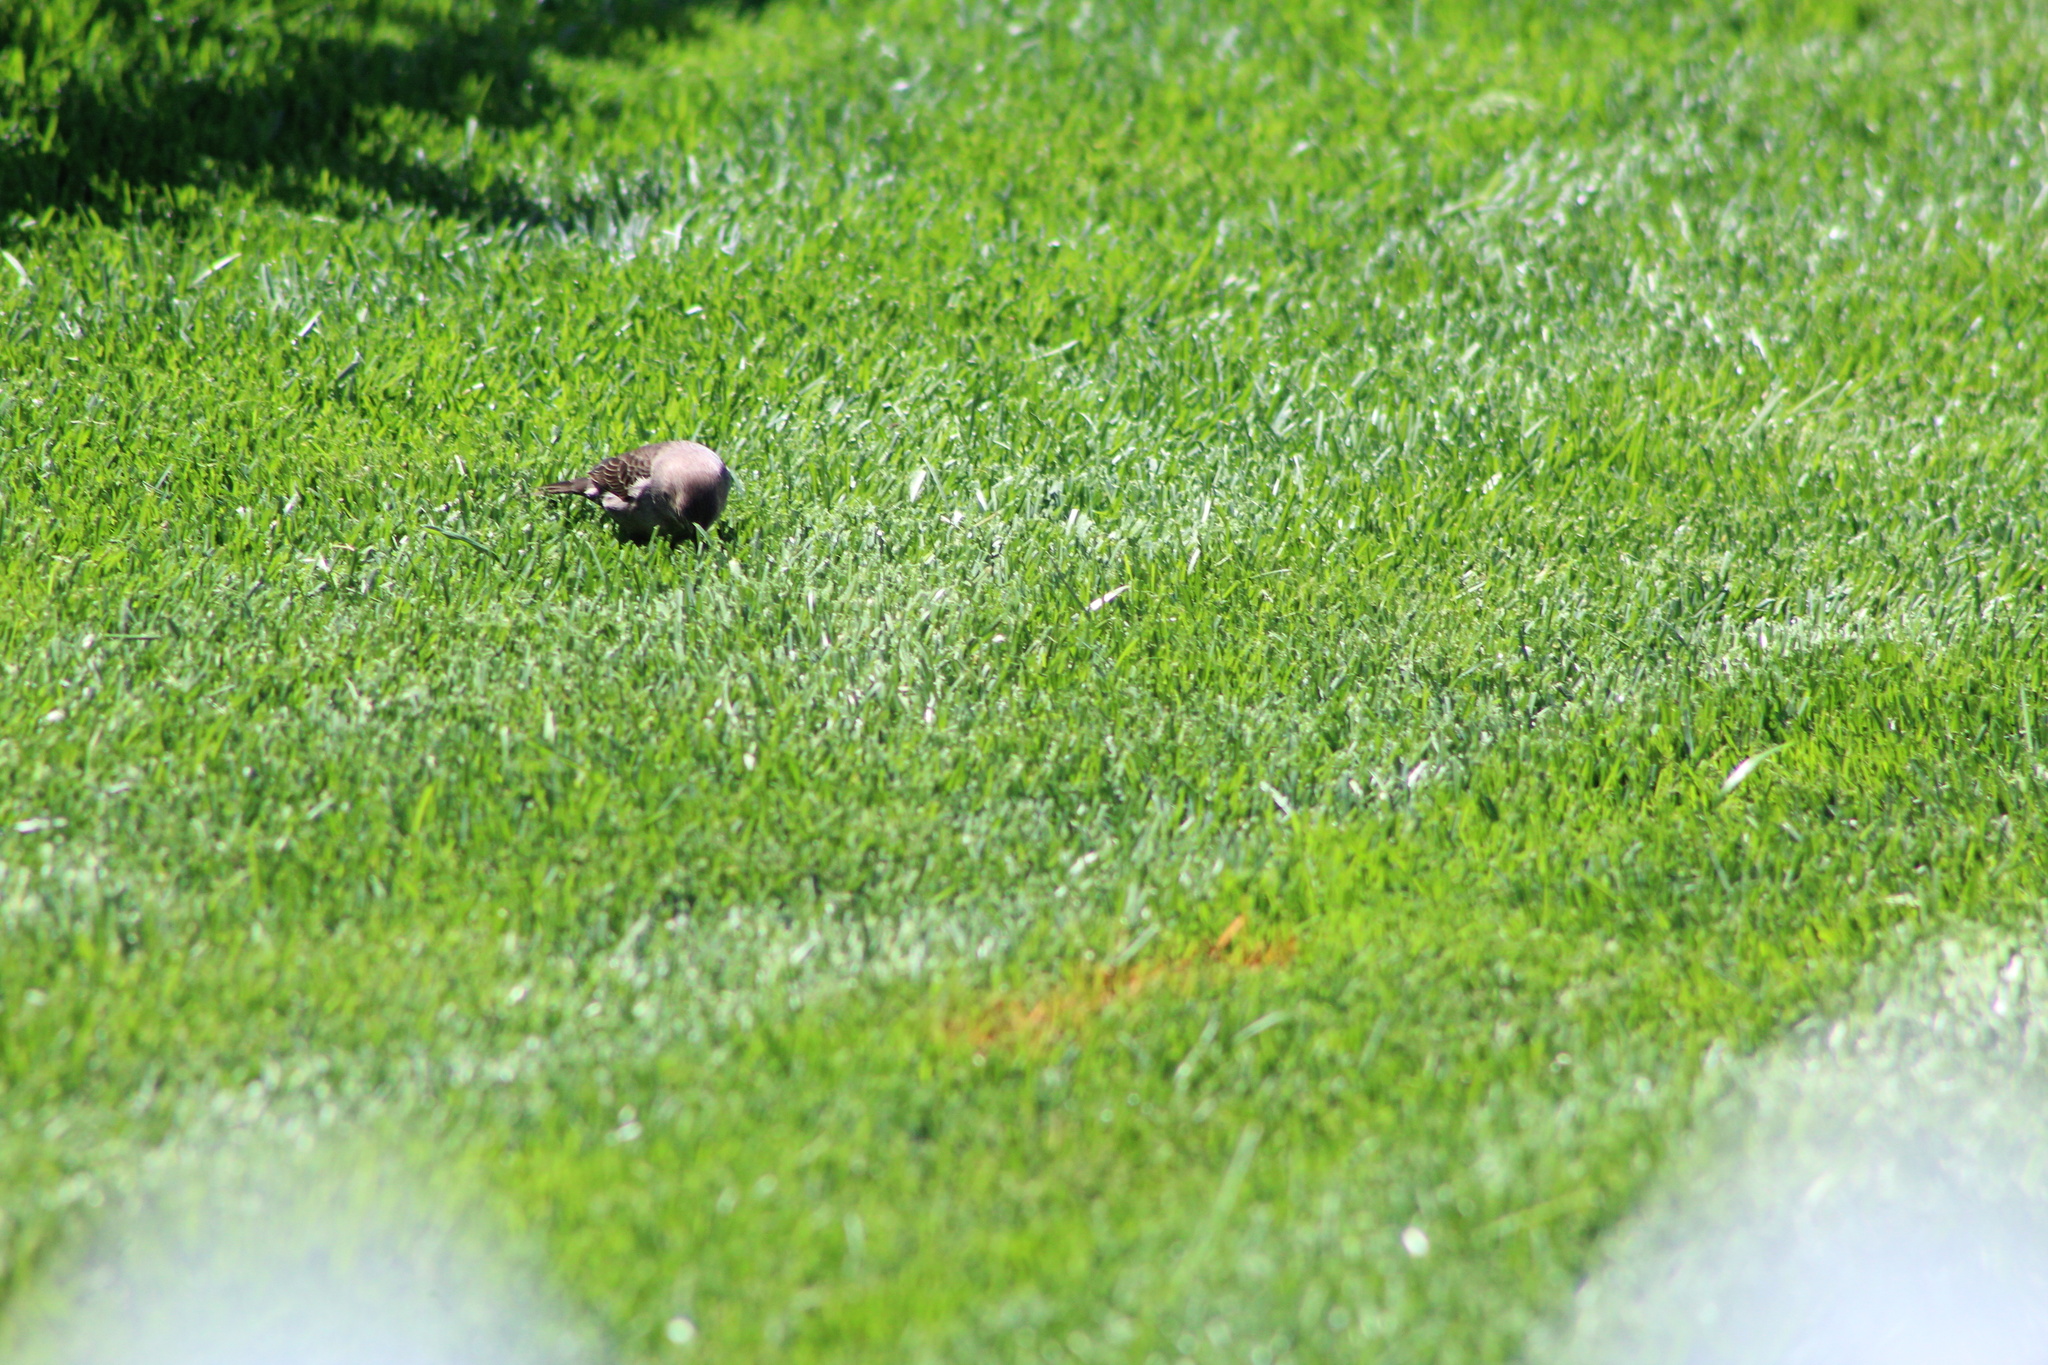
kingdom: Animalia
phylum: Chordata
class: Aves
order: Passeriformes
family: Icteridae
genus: Molothrus
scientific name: Molothrus ater
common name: Brown-headed cowbird
